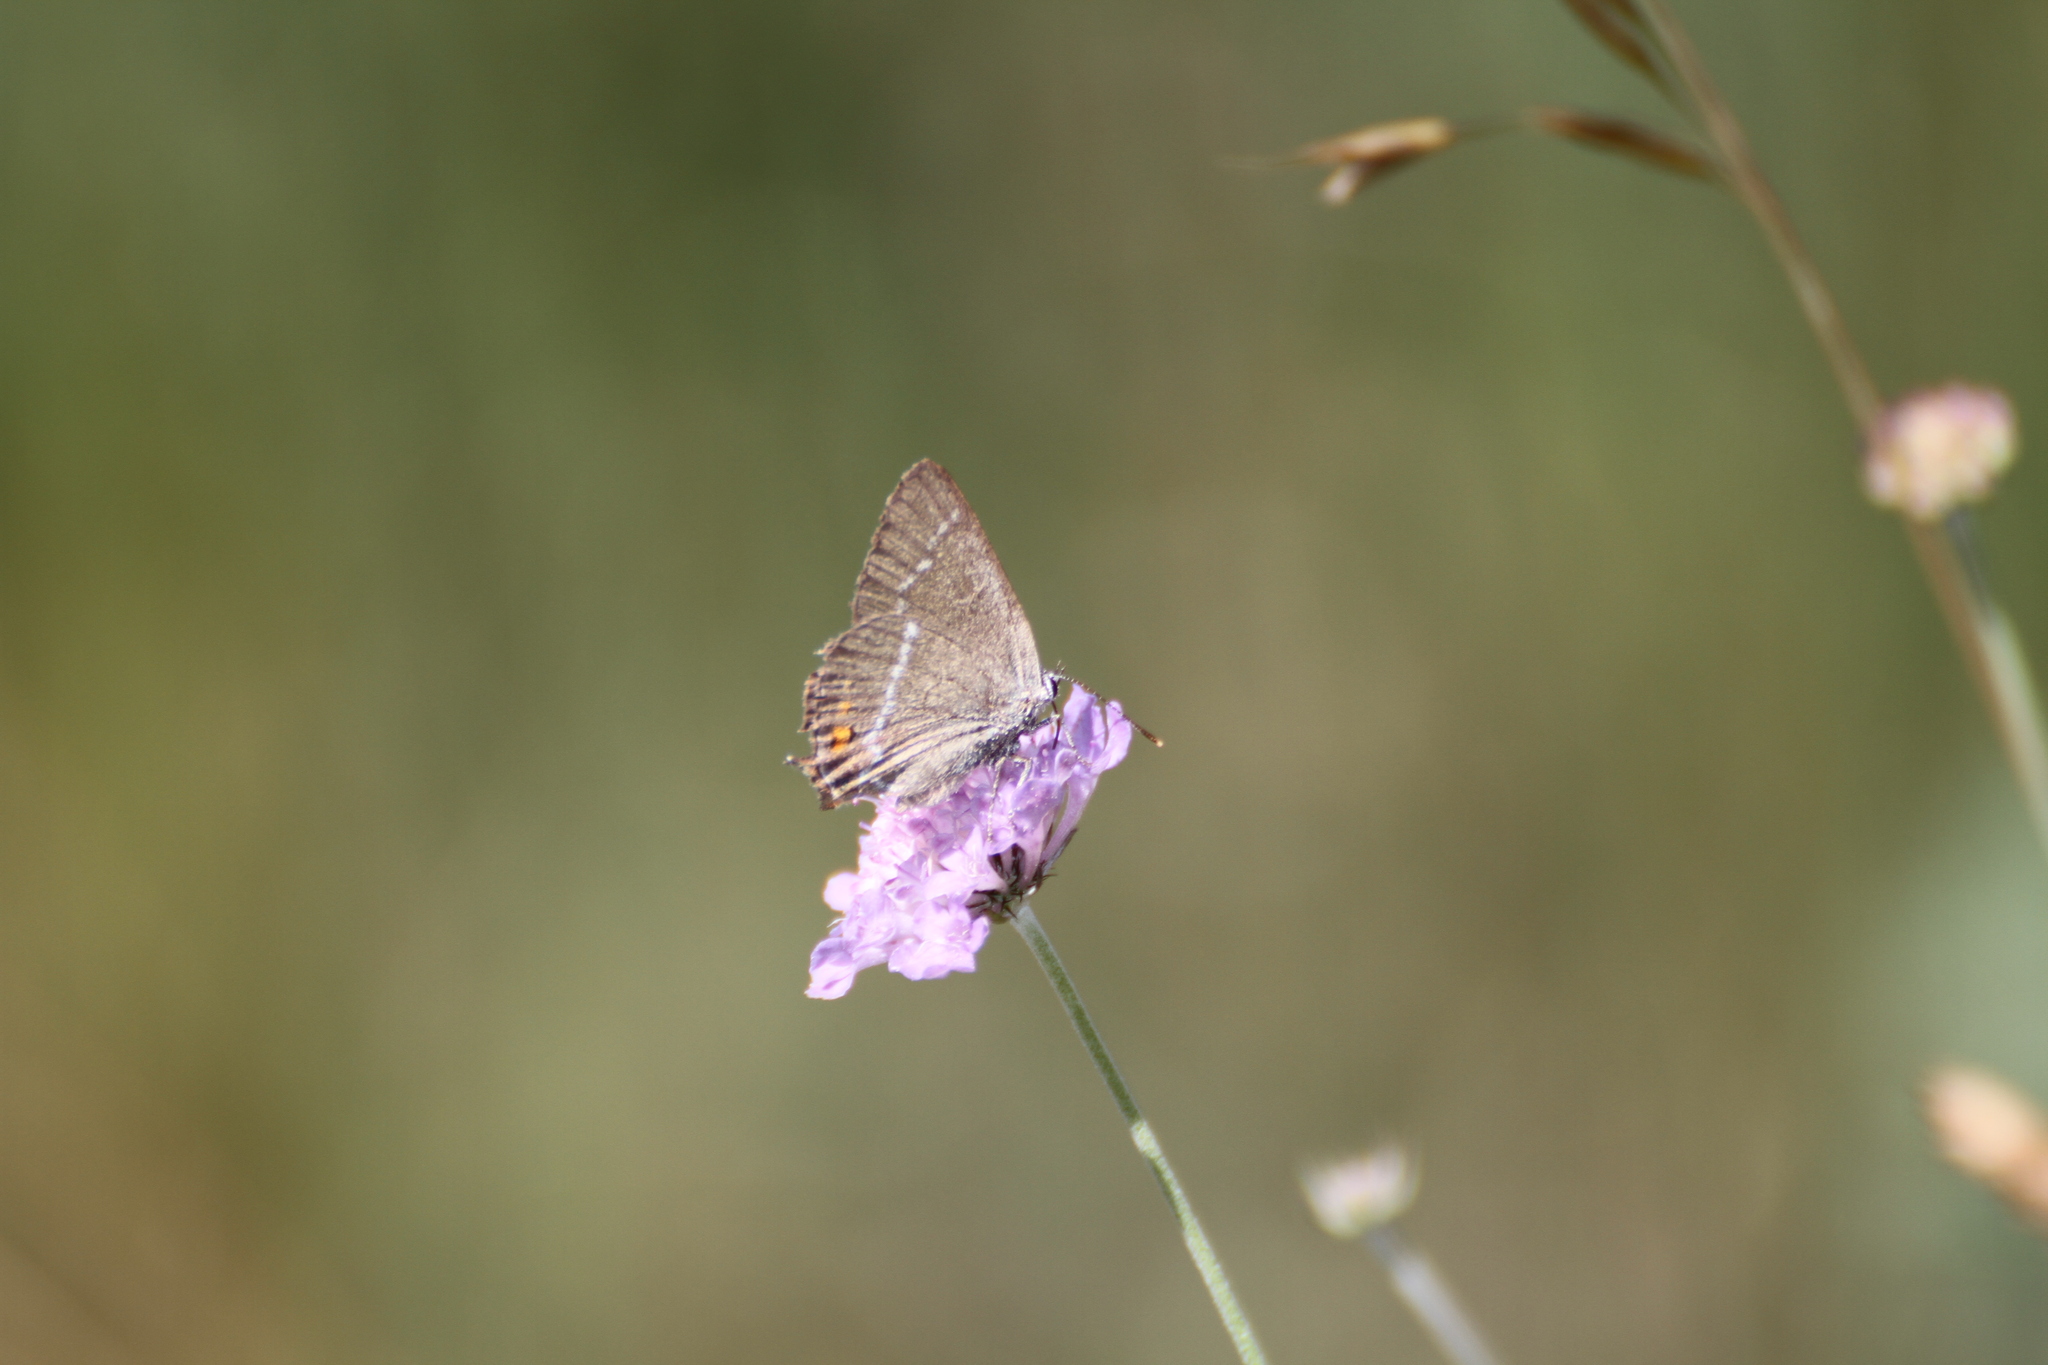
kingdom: Animalia
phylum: Arthropoda
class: Insecta
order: Lepidoptera
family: Lycaenidae
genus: Tuttiola
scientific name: Tuttiola spini
